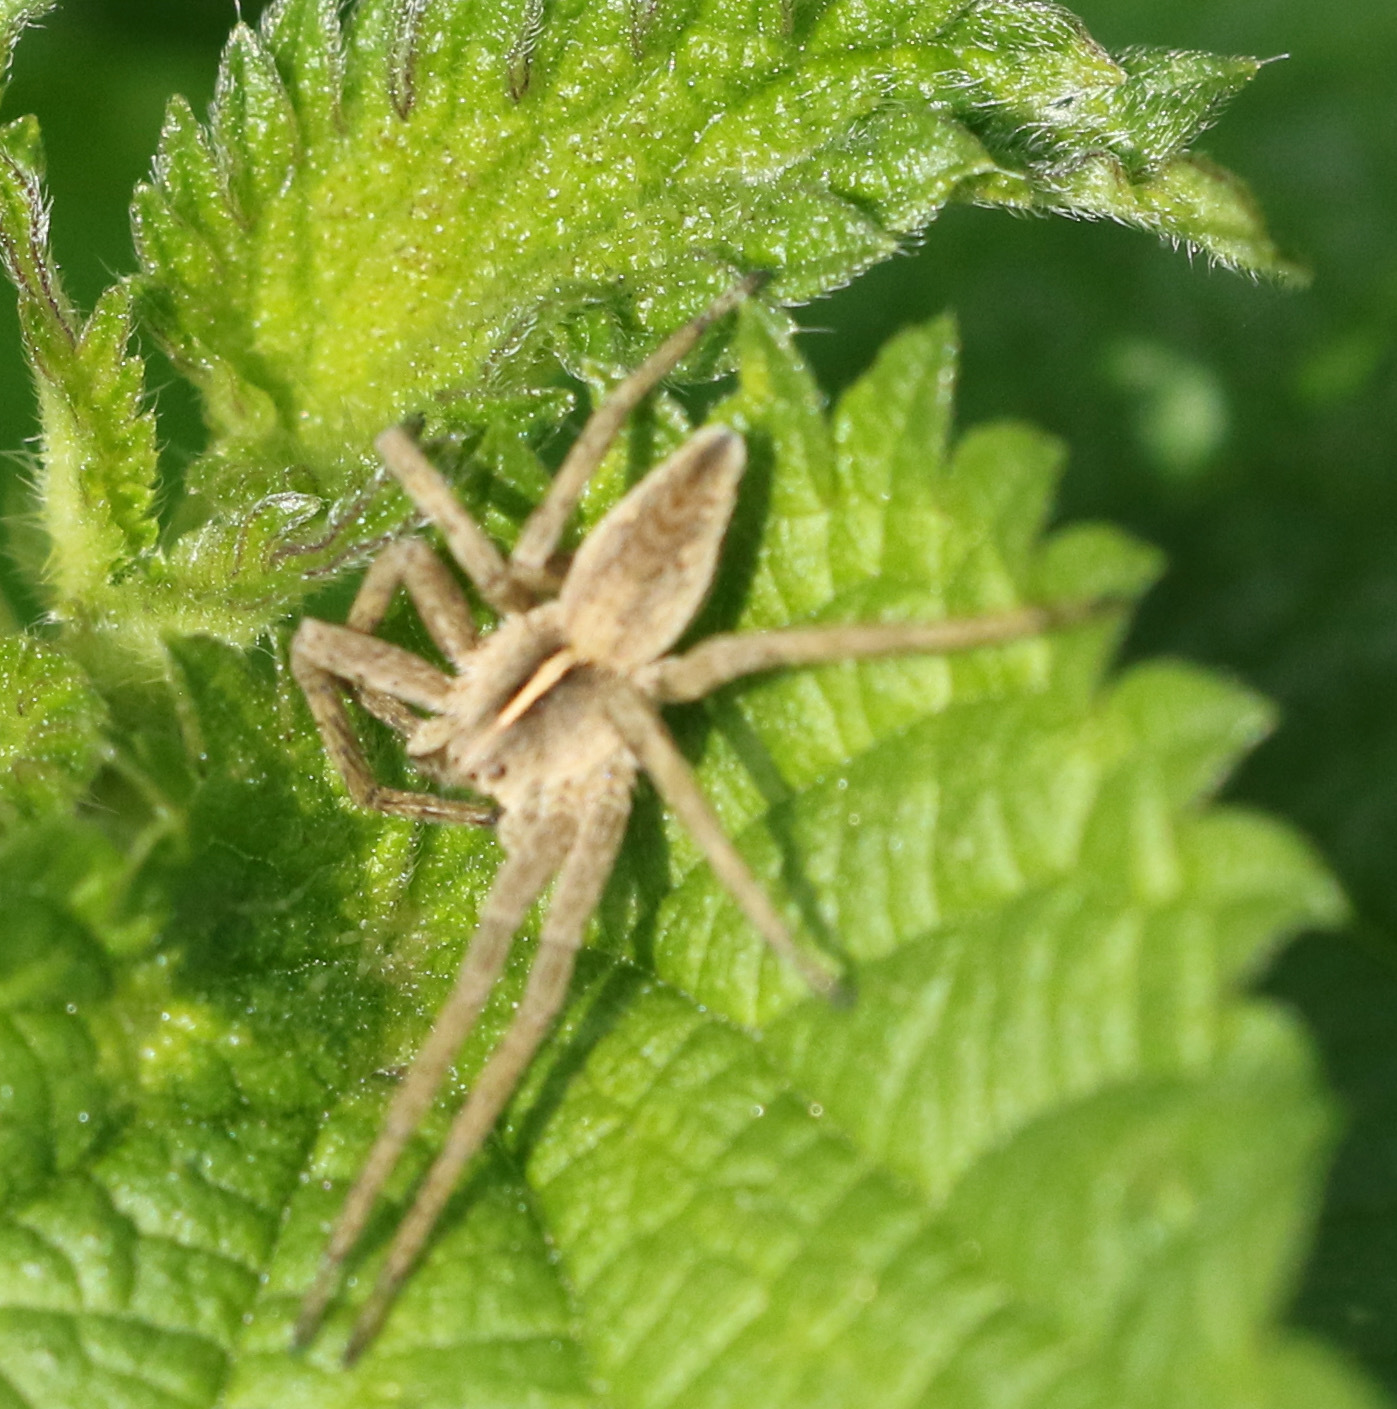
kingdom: Animalia
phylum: Arthropoda
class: Arachnida
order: Araneae
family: Pisauridae
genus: Pisaura
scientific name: Pisaura mirabilis
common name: Tent spider
